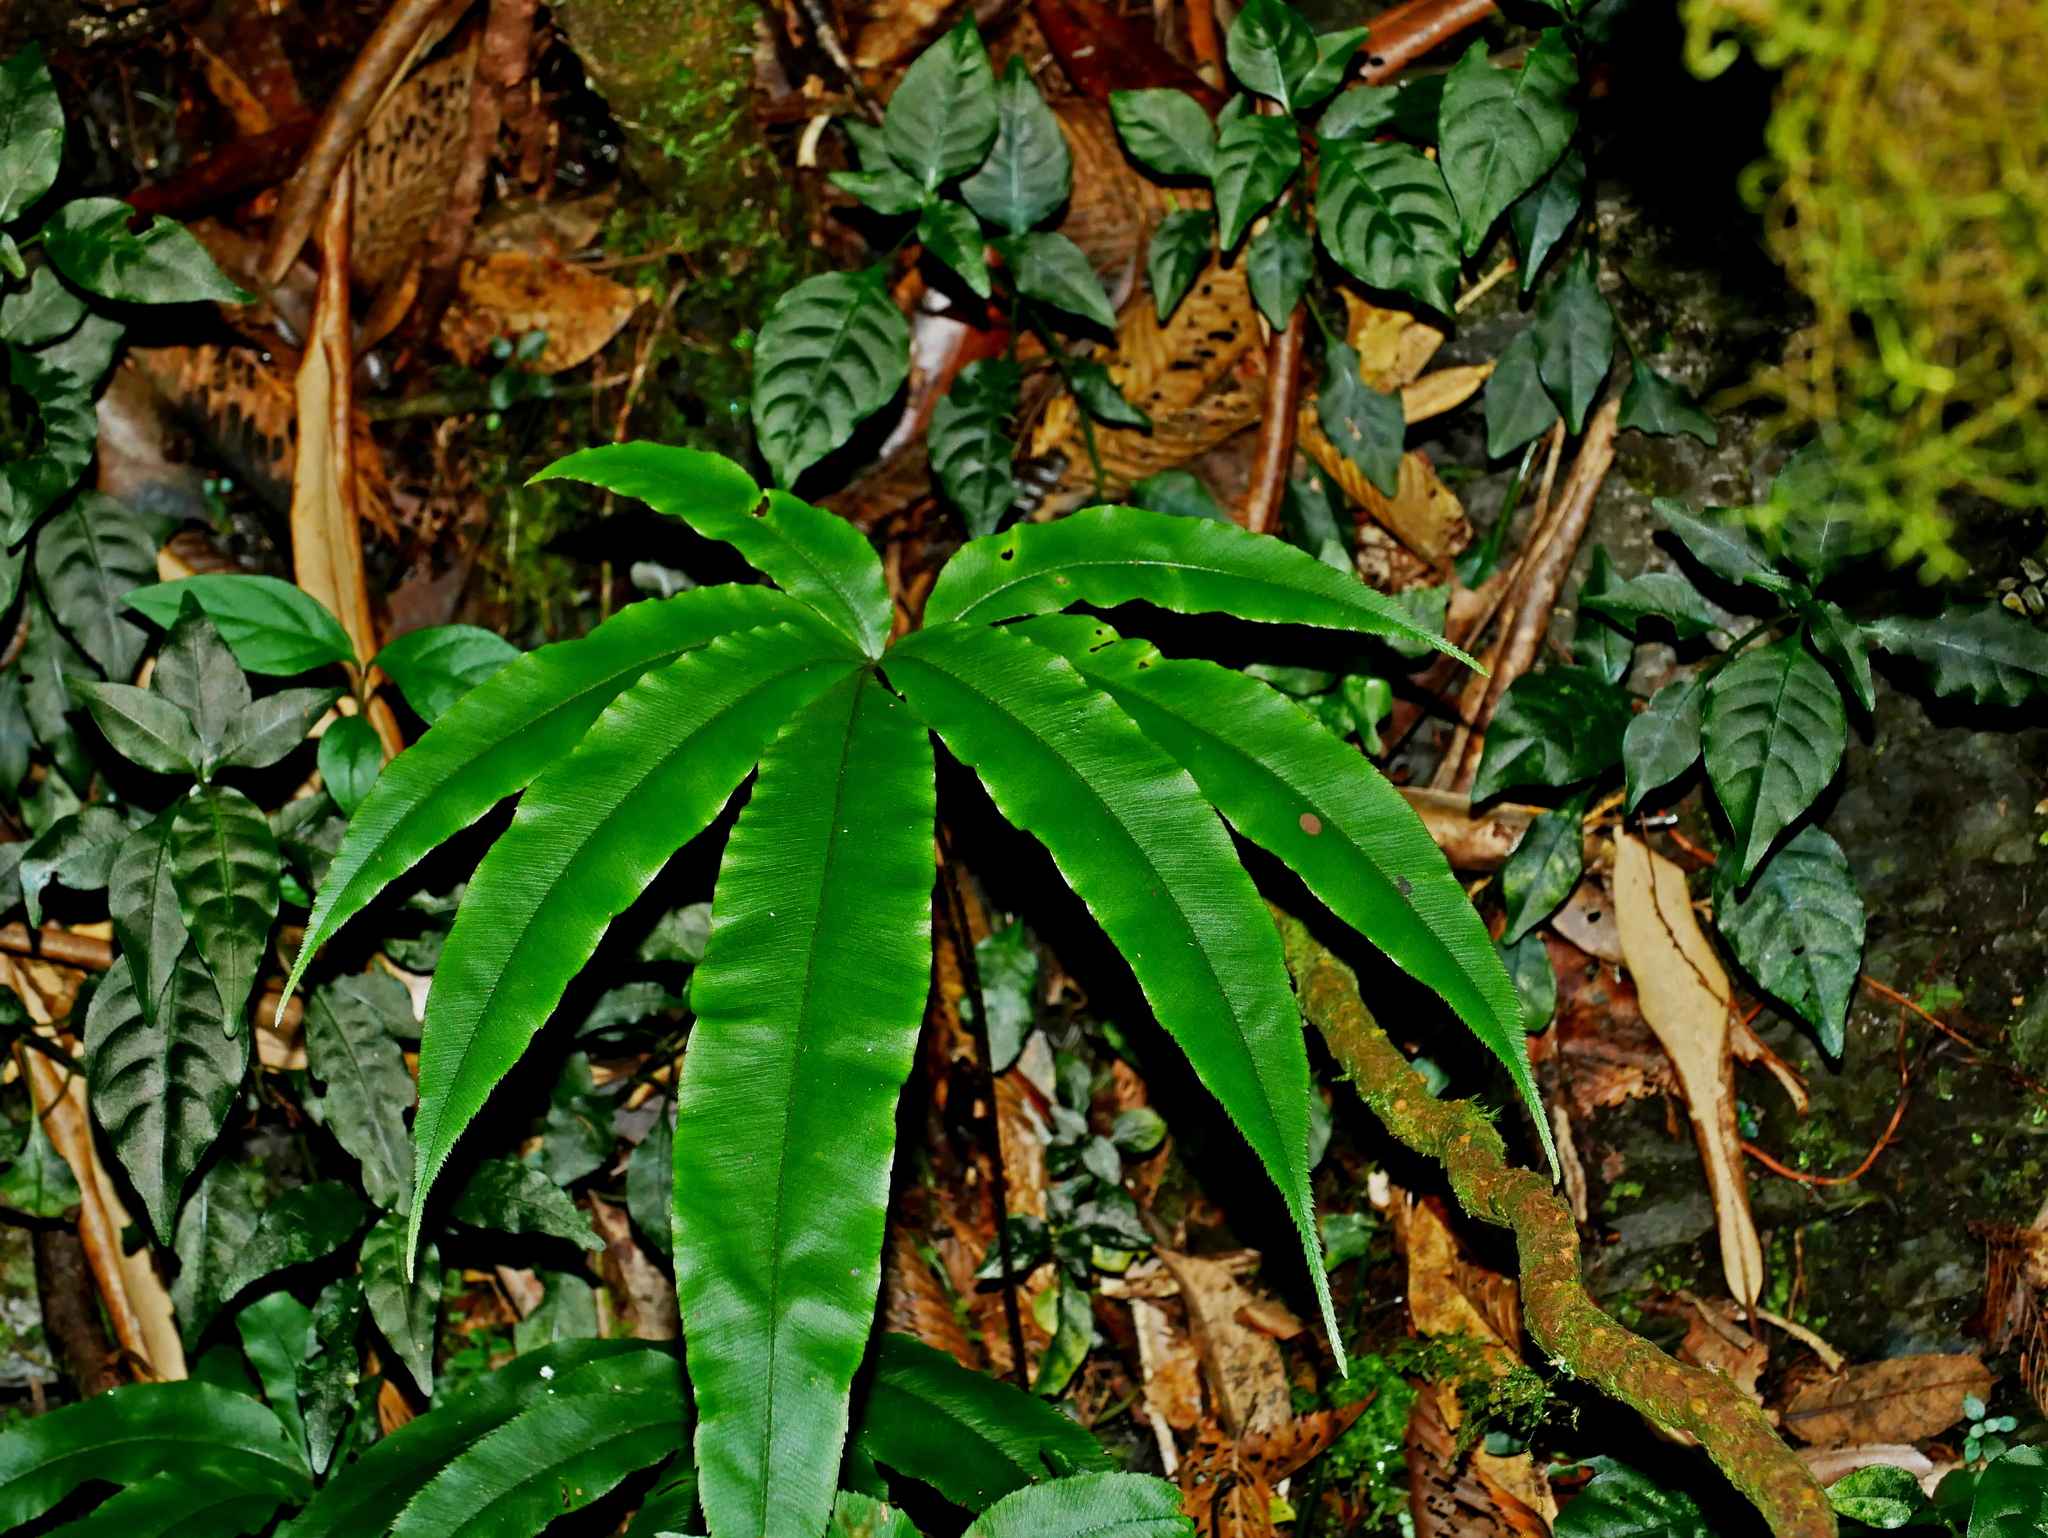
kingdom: Plantae
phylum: Tracheophyta
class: Polypodiopsida
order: Polypodiales
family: Pteridaceae
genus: Pteris
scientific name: Pteris subesquirolii
